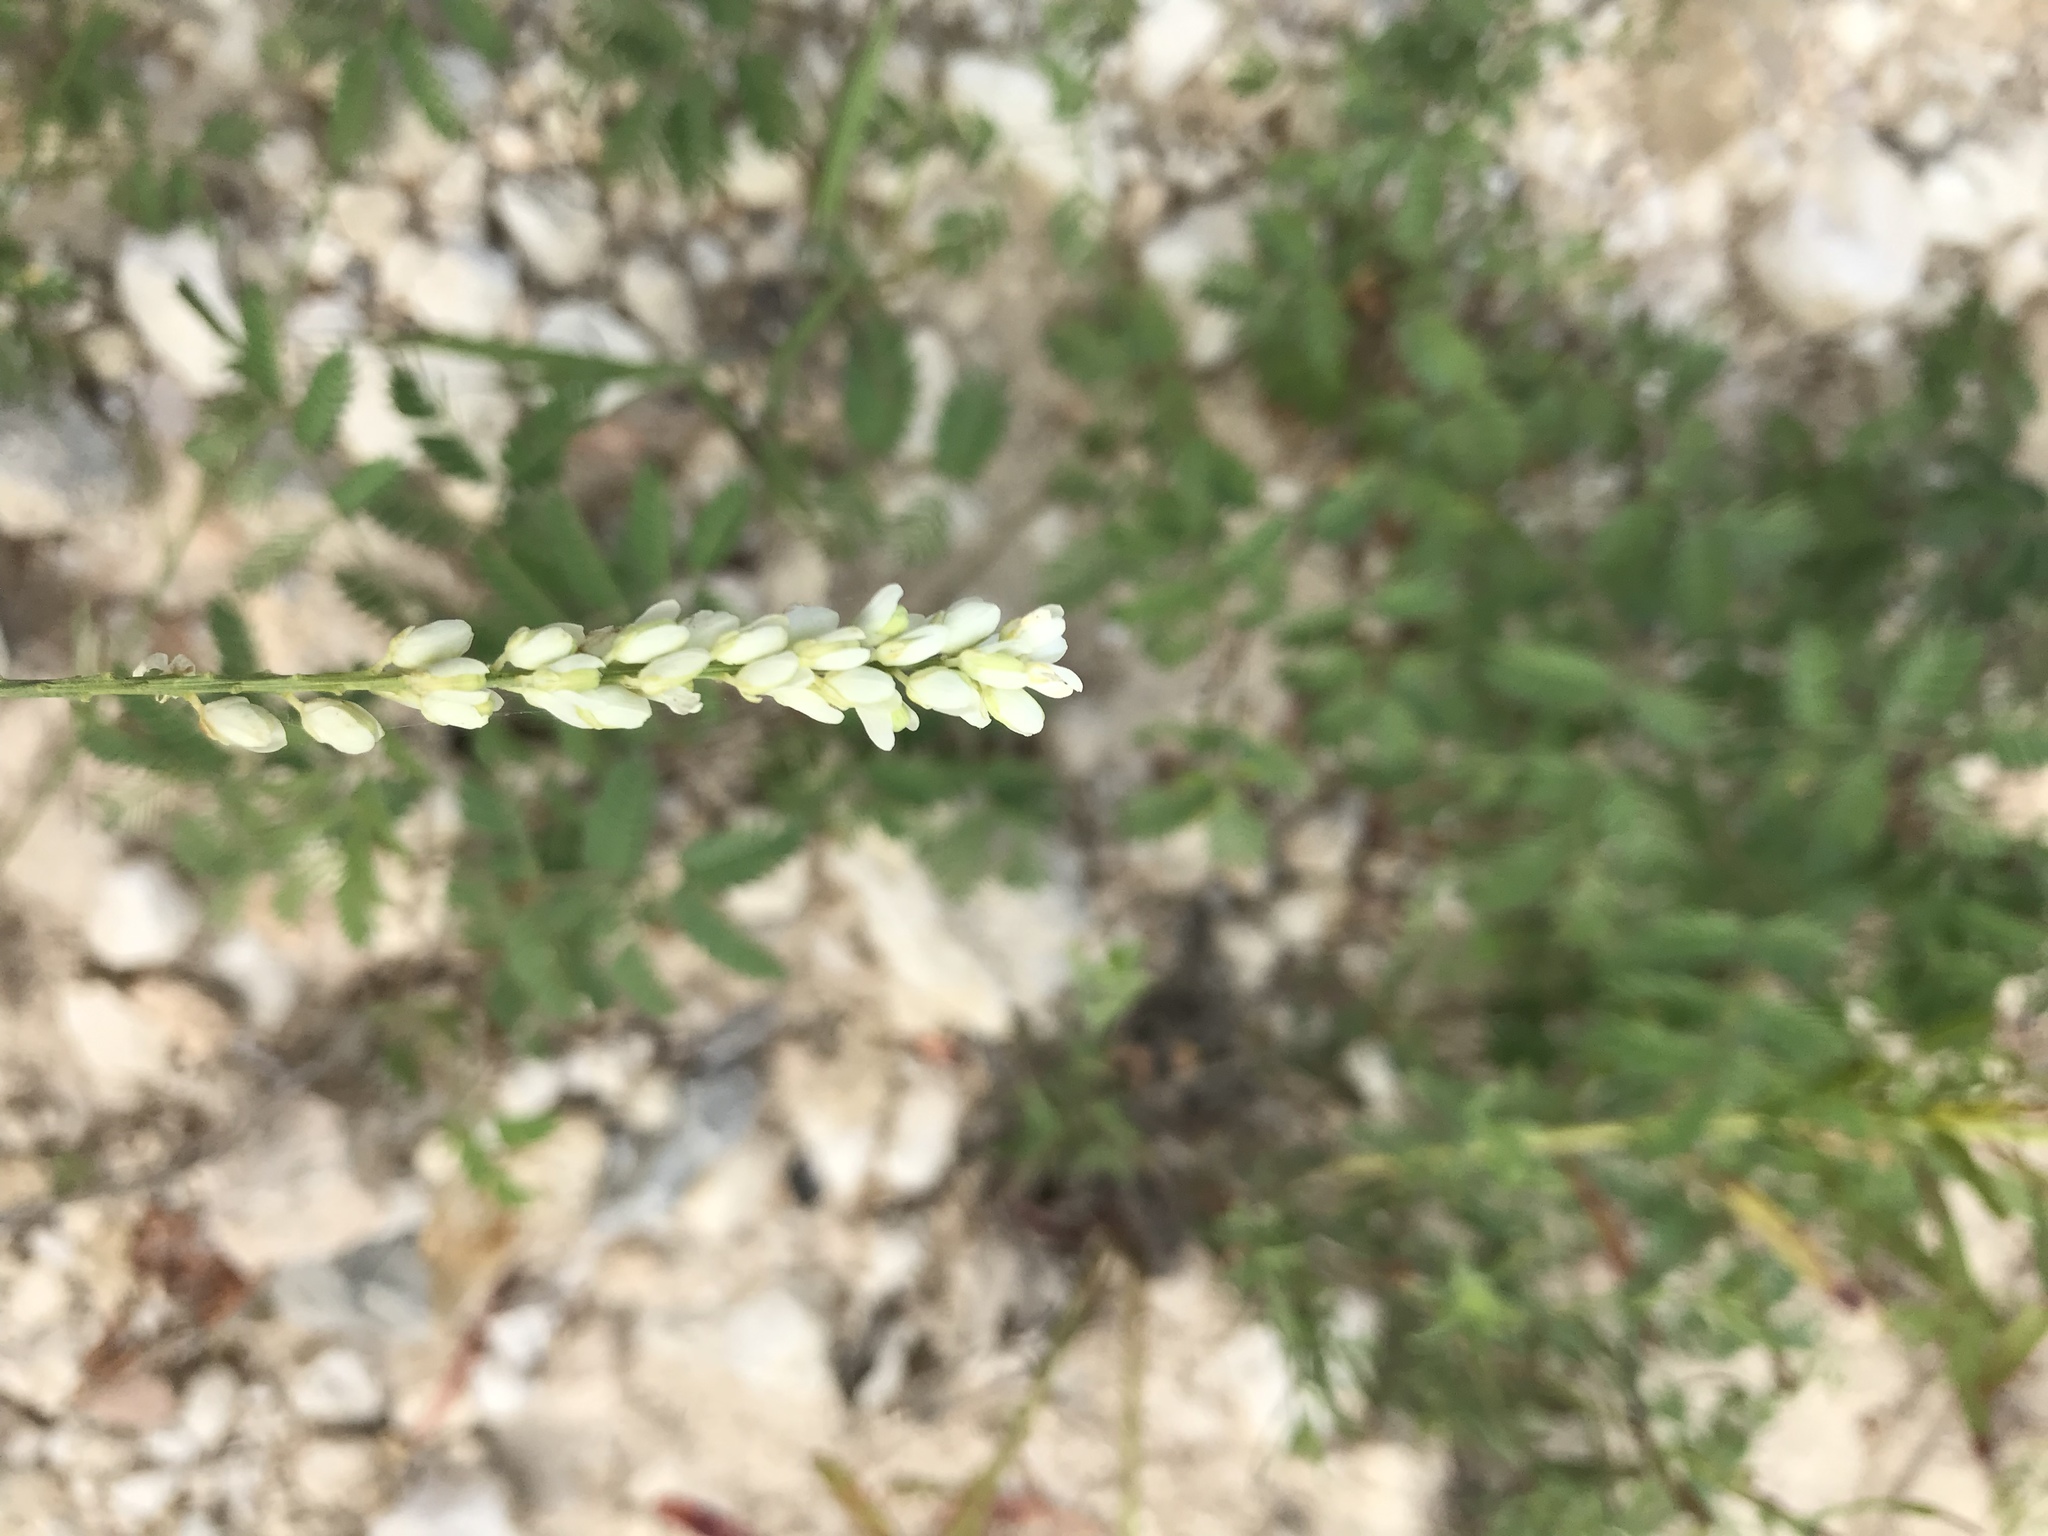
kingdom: Plantae
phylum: Tracheophyta
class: Magnoliopsida
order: Fabales
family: Polygalaceae
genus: Polygala
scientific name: Polygala alba
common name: White milkwort
